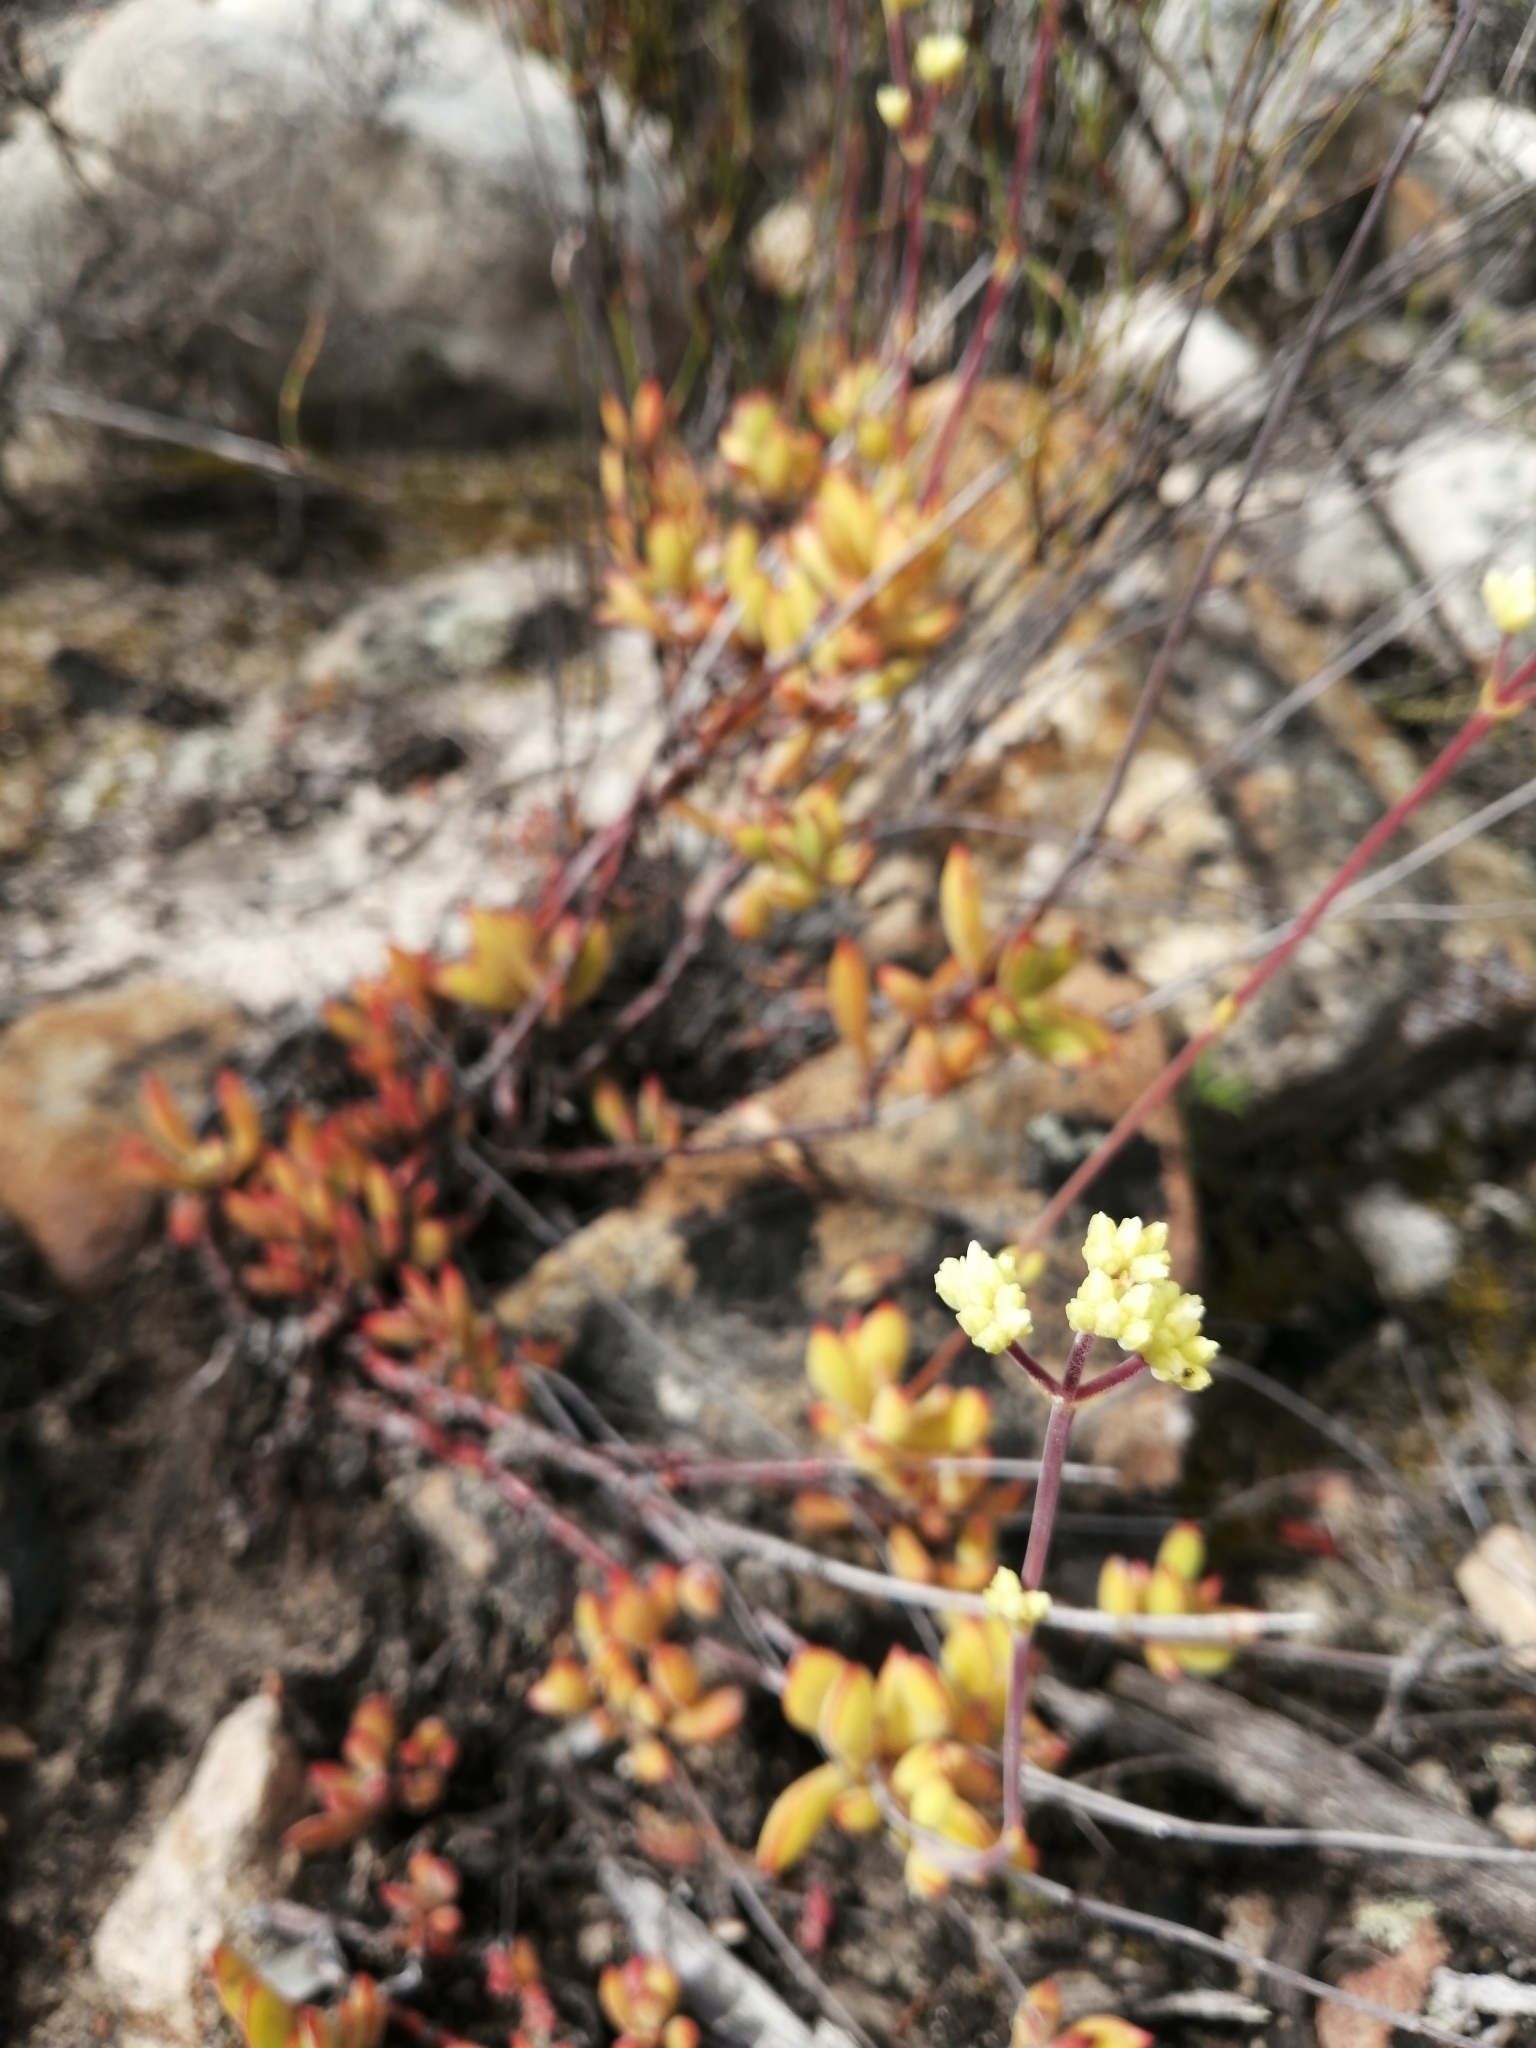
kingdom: Plantae
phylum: Tracheophyta
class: Magnoliopsida
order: Saxifragales
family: Crassulaceae
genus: Crassula
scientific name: Crassula atropurpurea
